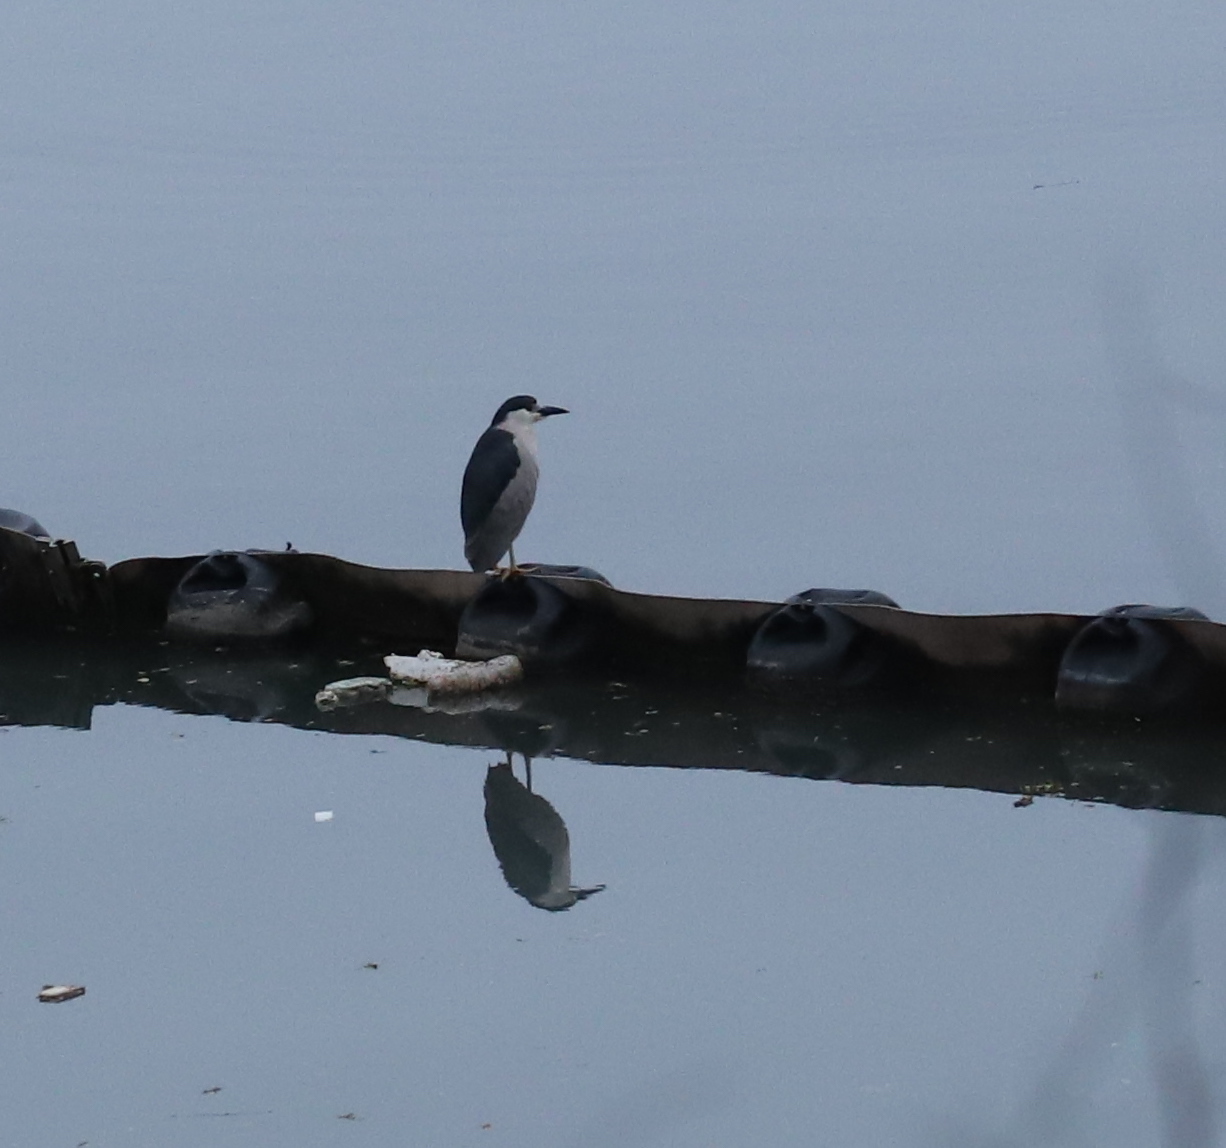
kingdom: Animalia
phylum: Chordata
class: Aves
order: Pelecaniformes
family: Ardeidae
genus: Nycticorax
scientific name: Nycticorax nycticorax
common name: Black-crowned night heron
